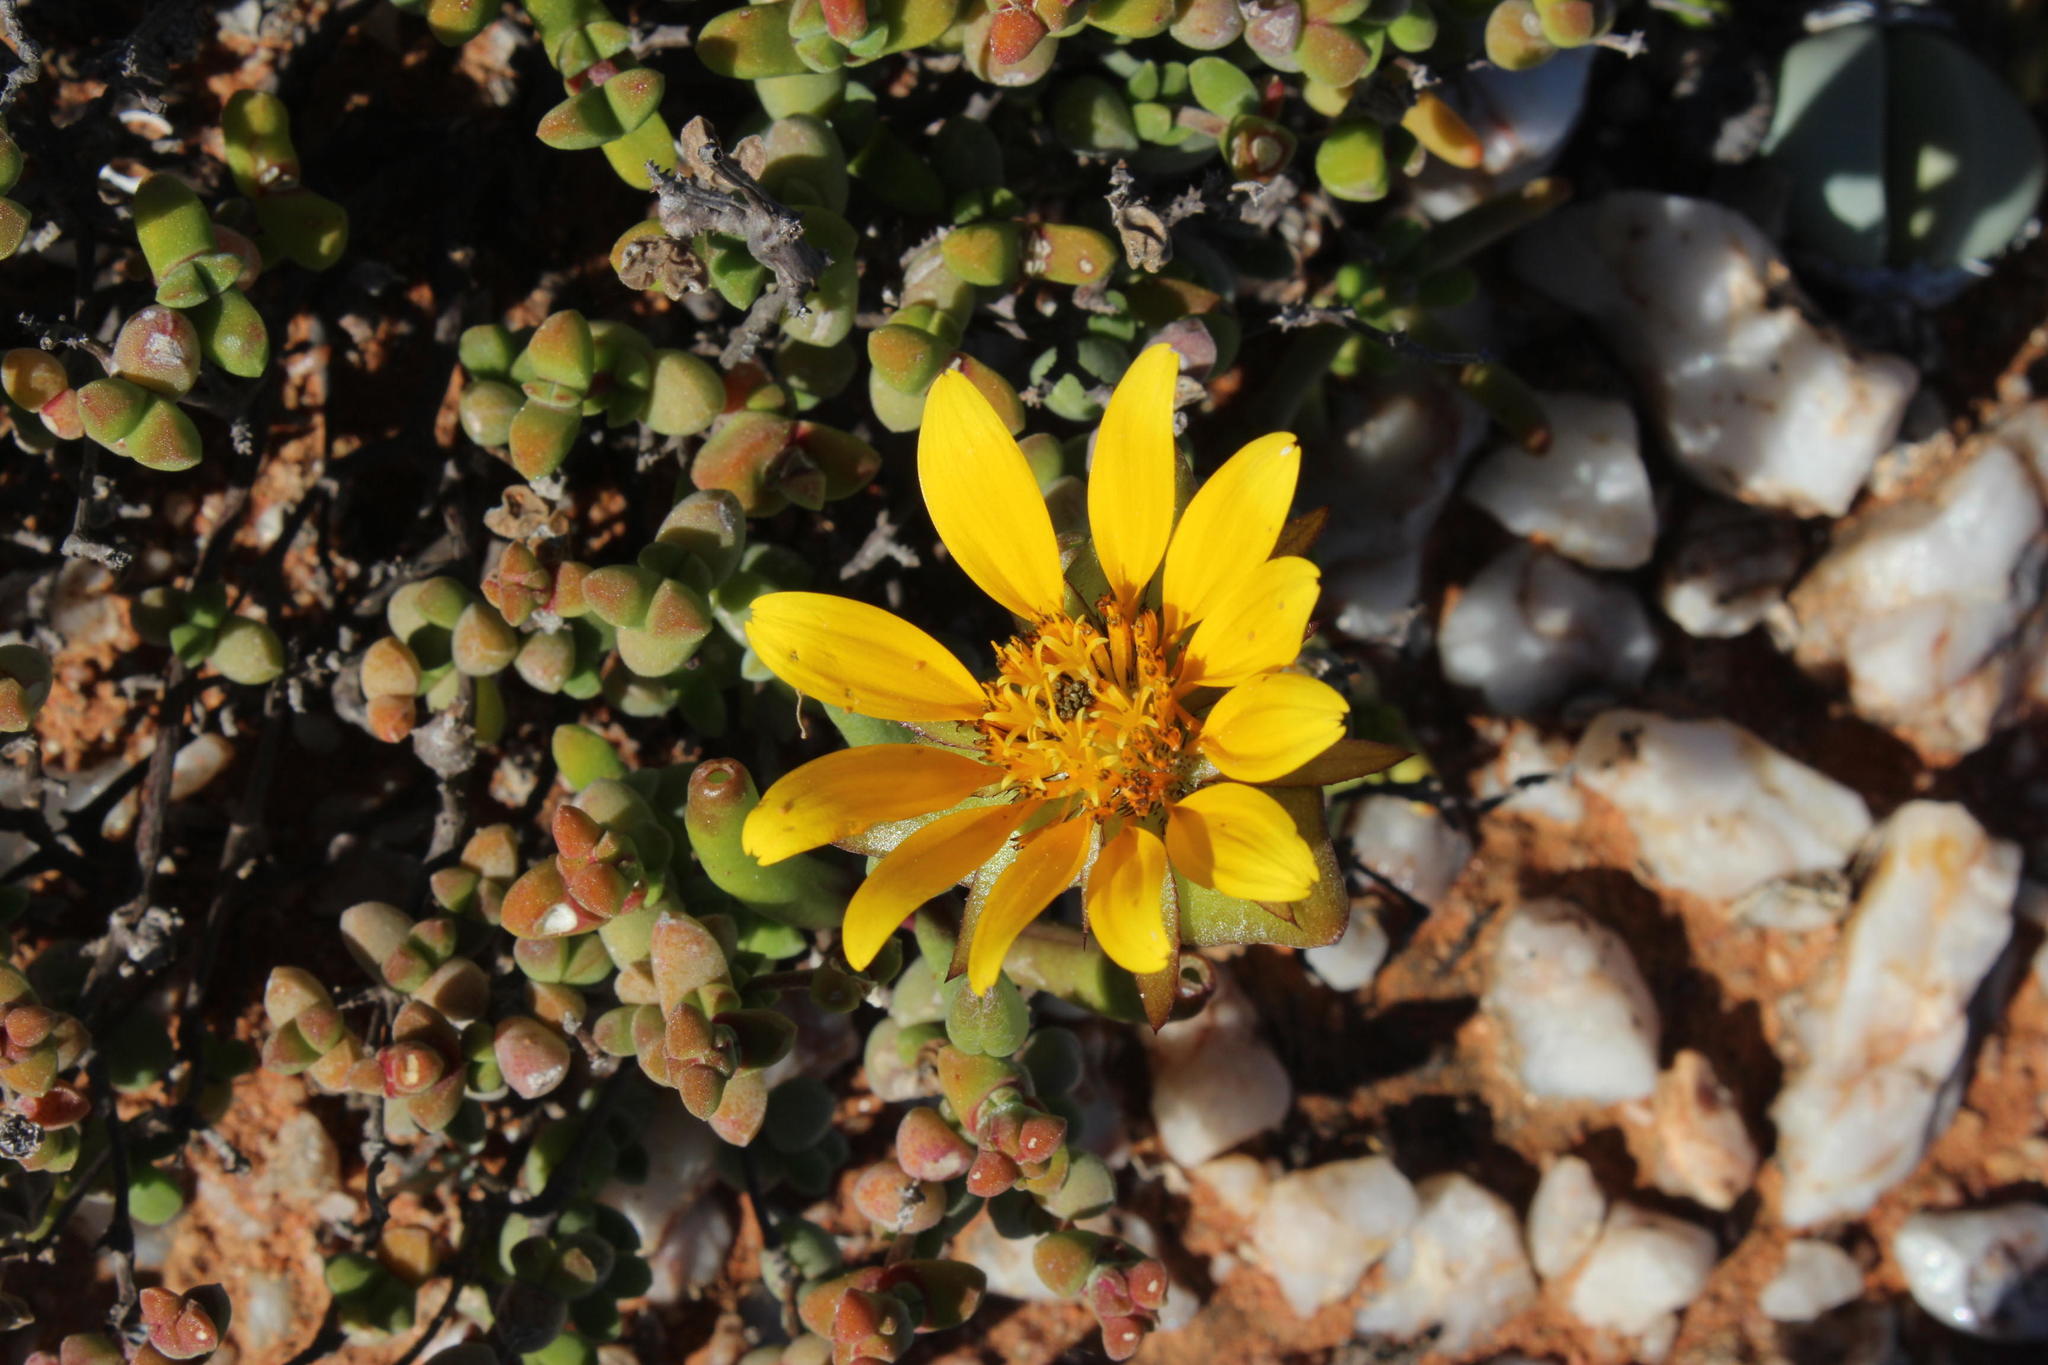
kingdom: Plantae
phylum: Tracheophyta
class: Magnoliopsida
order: Asterales
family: Asteraceae
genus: Didelta
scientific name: Didelta carnosa
